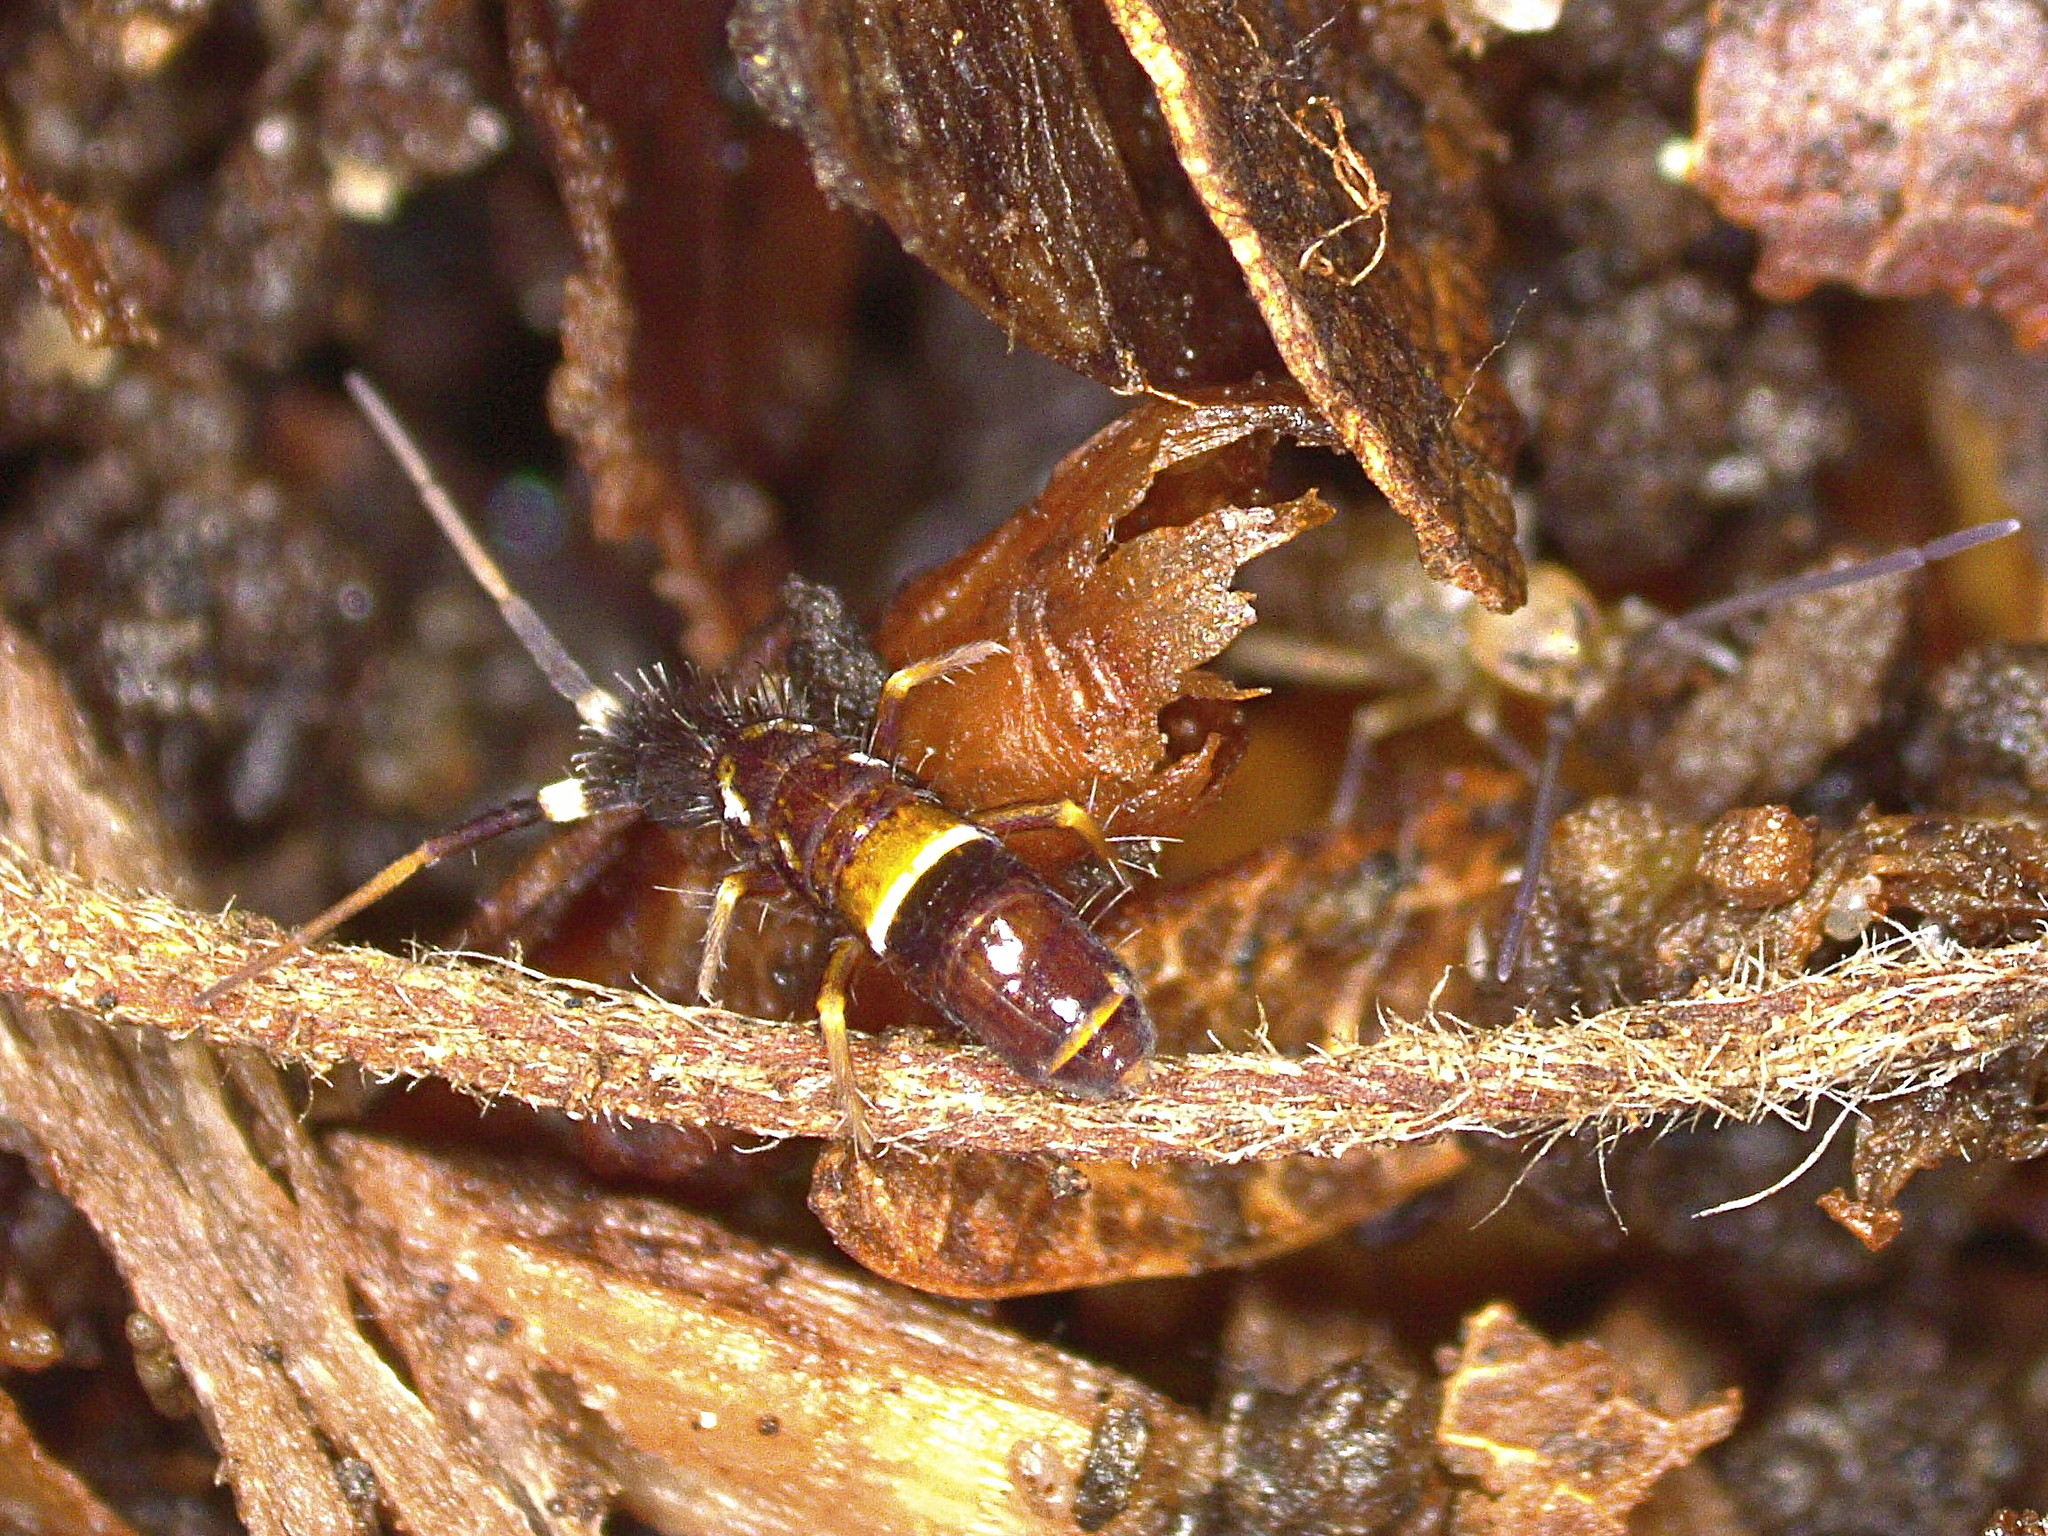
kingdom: Animalia
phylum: Arthropoda
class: Collembola
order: Entomobryomorpha
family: Orchesellidae
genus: Orchesella
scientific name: Orchesella cincta
